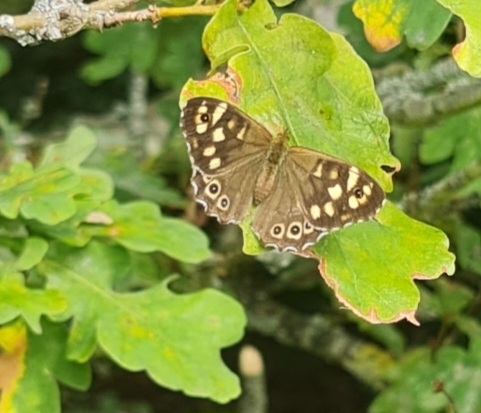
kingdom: Animalia
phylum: Arthropoda
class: Insecta
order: Lepidoptera
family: Nymphalidae
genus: Pararge
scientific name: Pararge aegeria
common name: Speckled wood
